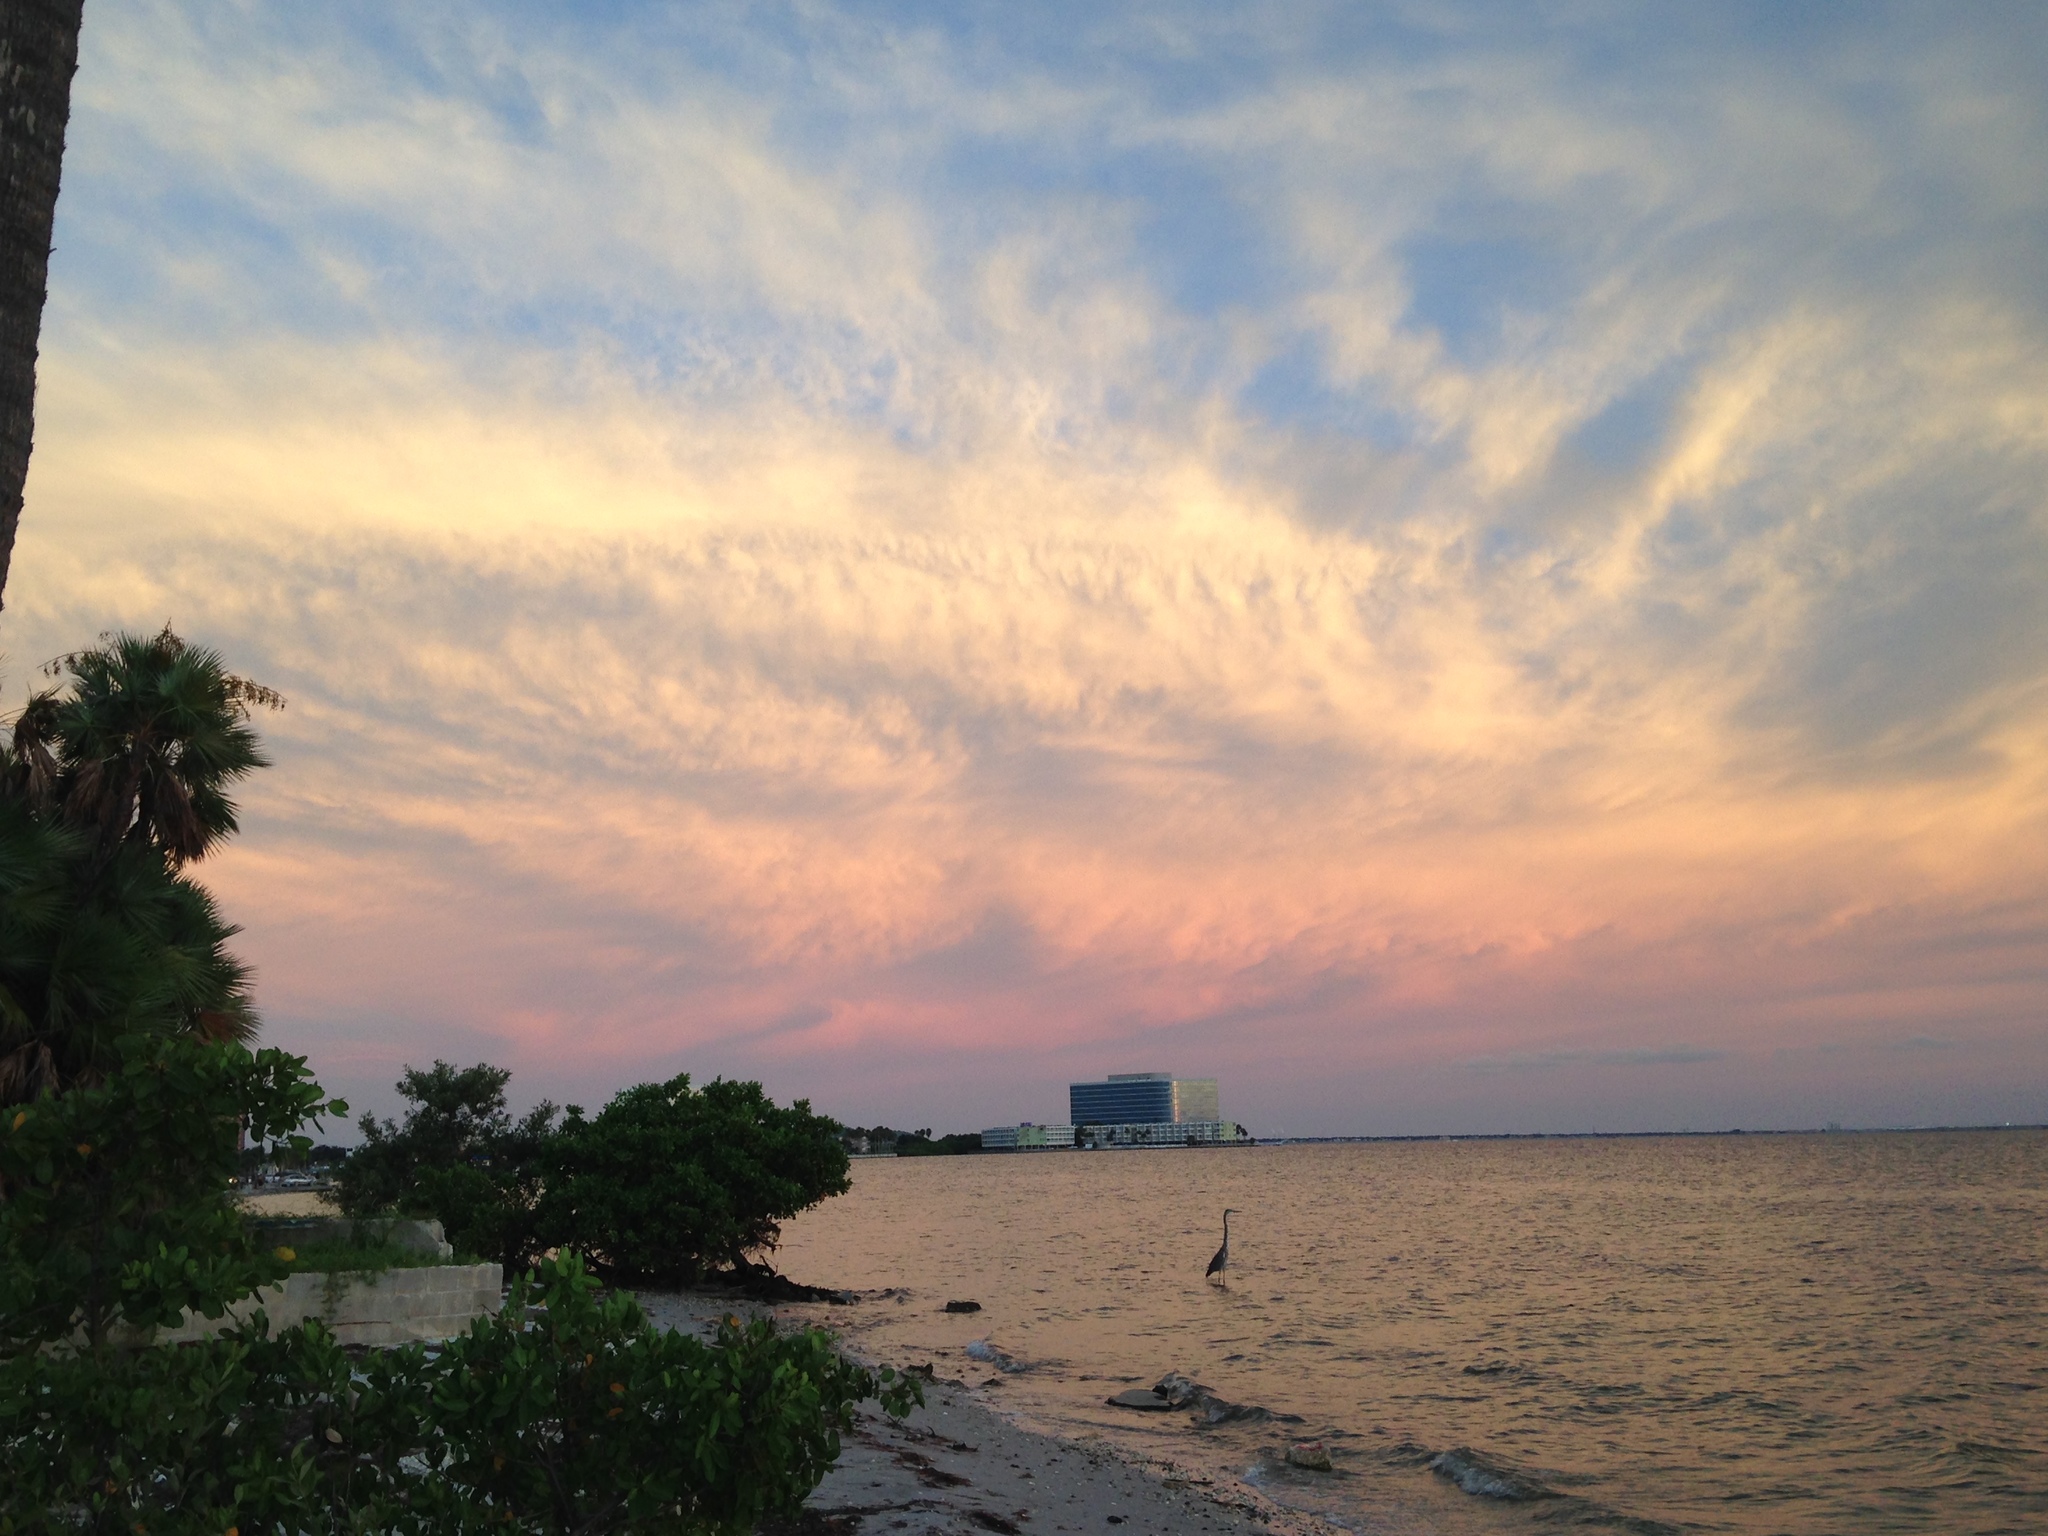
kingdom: Animalia
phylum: Chordata
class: Aves
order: Pelecaniformes
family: Ardeidae
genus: Ardea
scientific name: Ardea herodias
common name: Great blue heron
